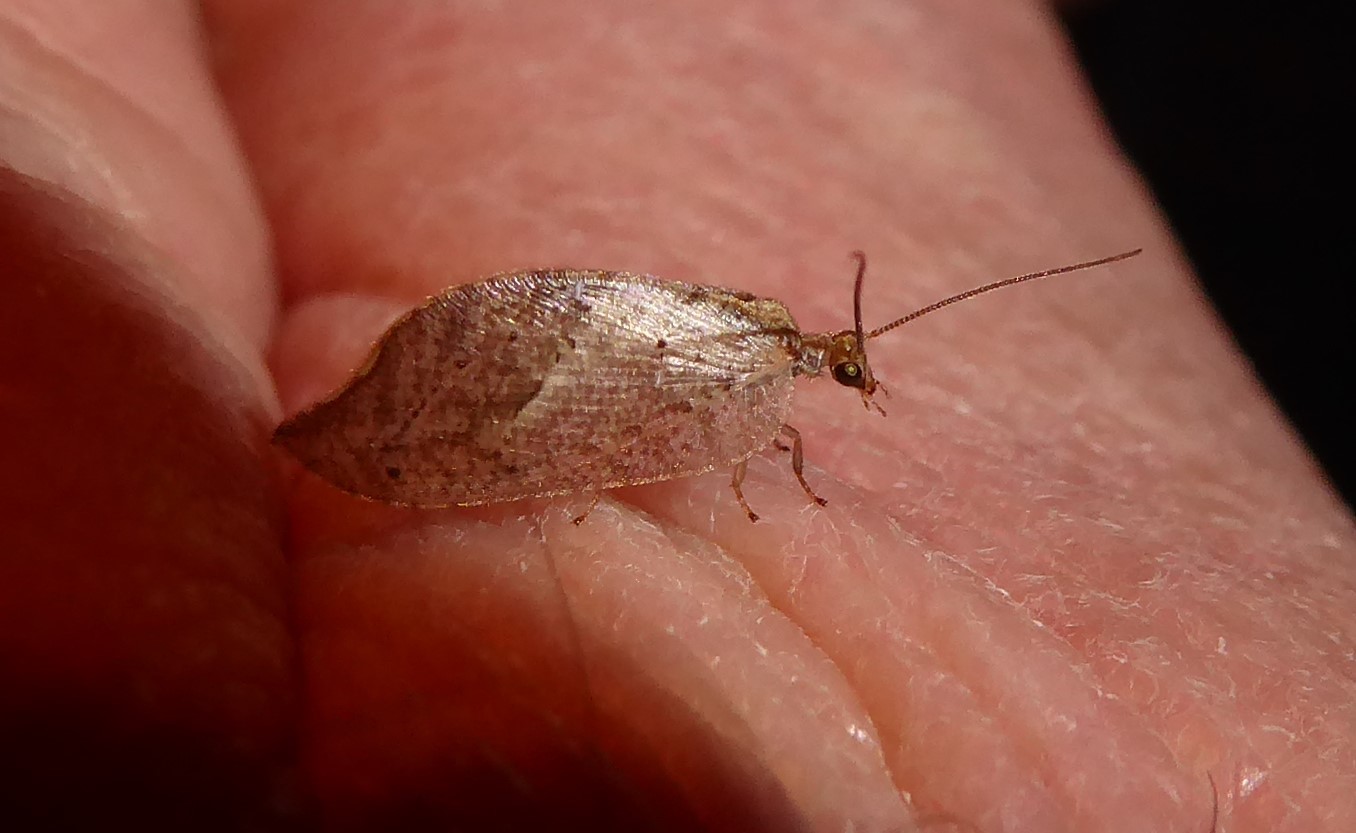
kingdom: Animalia
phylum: Arthropoda
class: Insecta
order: Neuroptera
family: Hemerobiidae
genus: Drepanacra
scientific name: Drepanacra binocula
